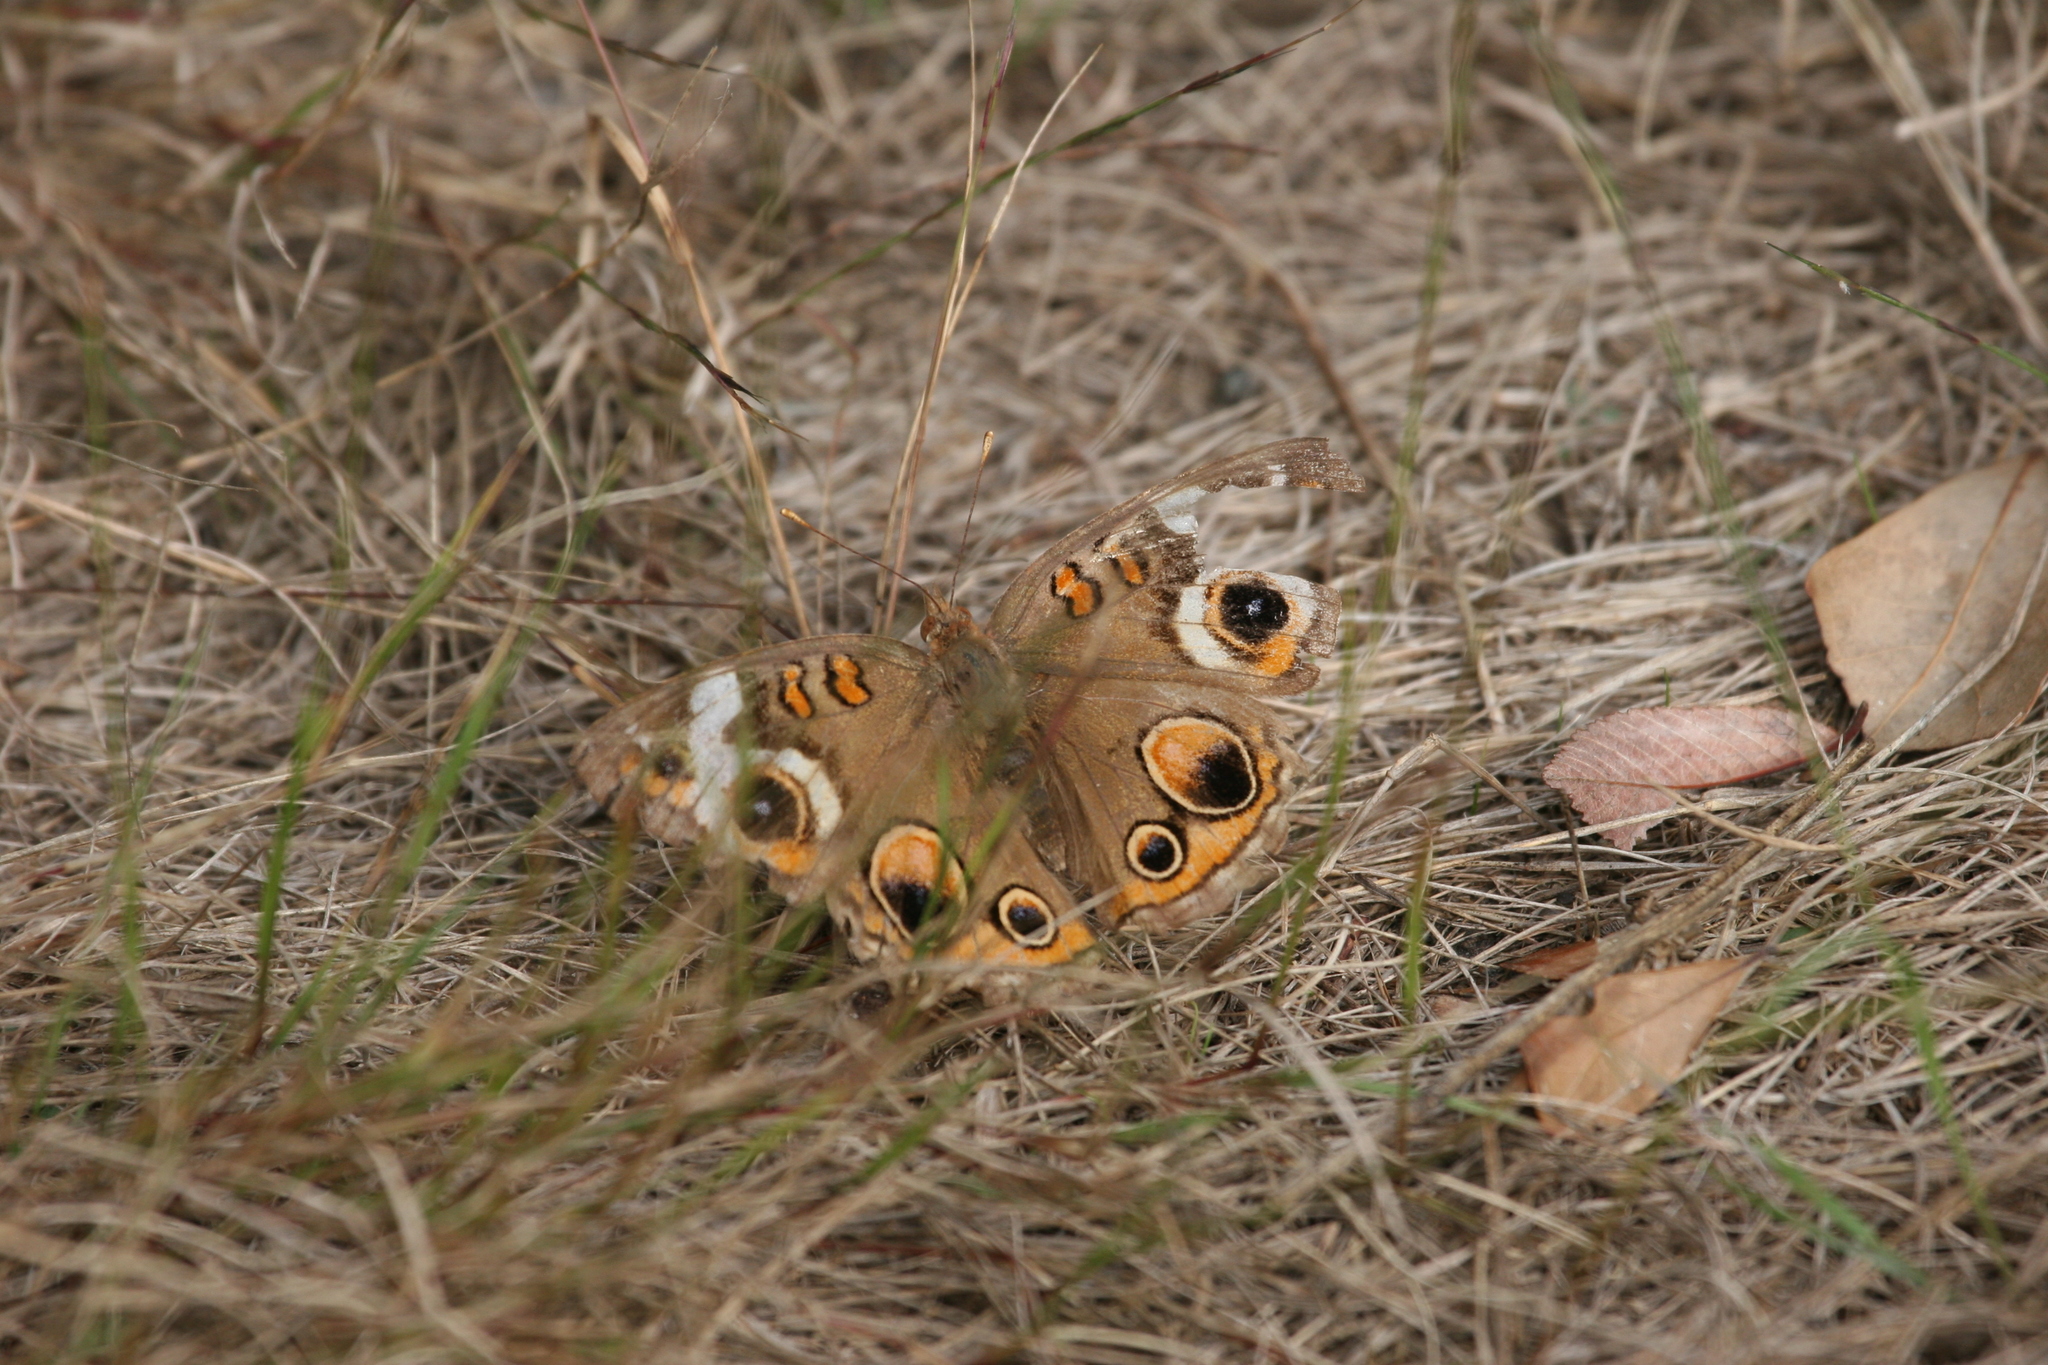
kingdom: Animalia
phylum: Arthropoda
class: Insecta
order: Lepidoptera
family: Nymphalidae
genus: Junonia
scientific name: Junonia coenia
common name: Common buckeye
